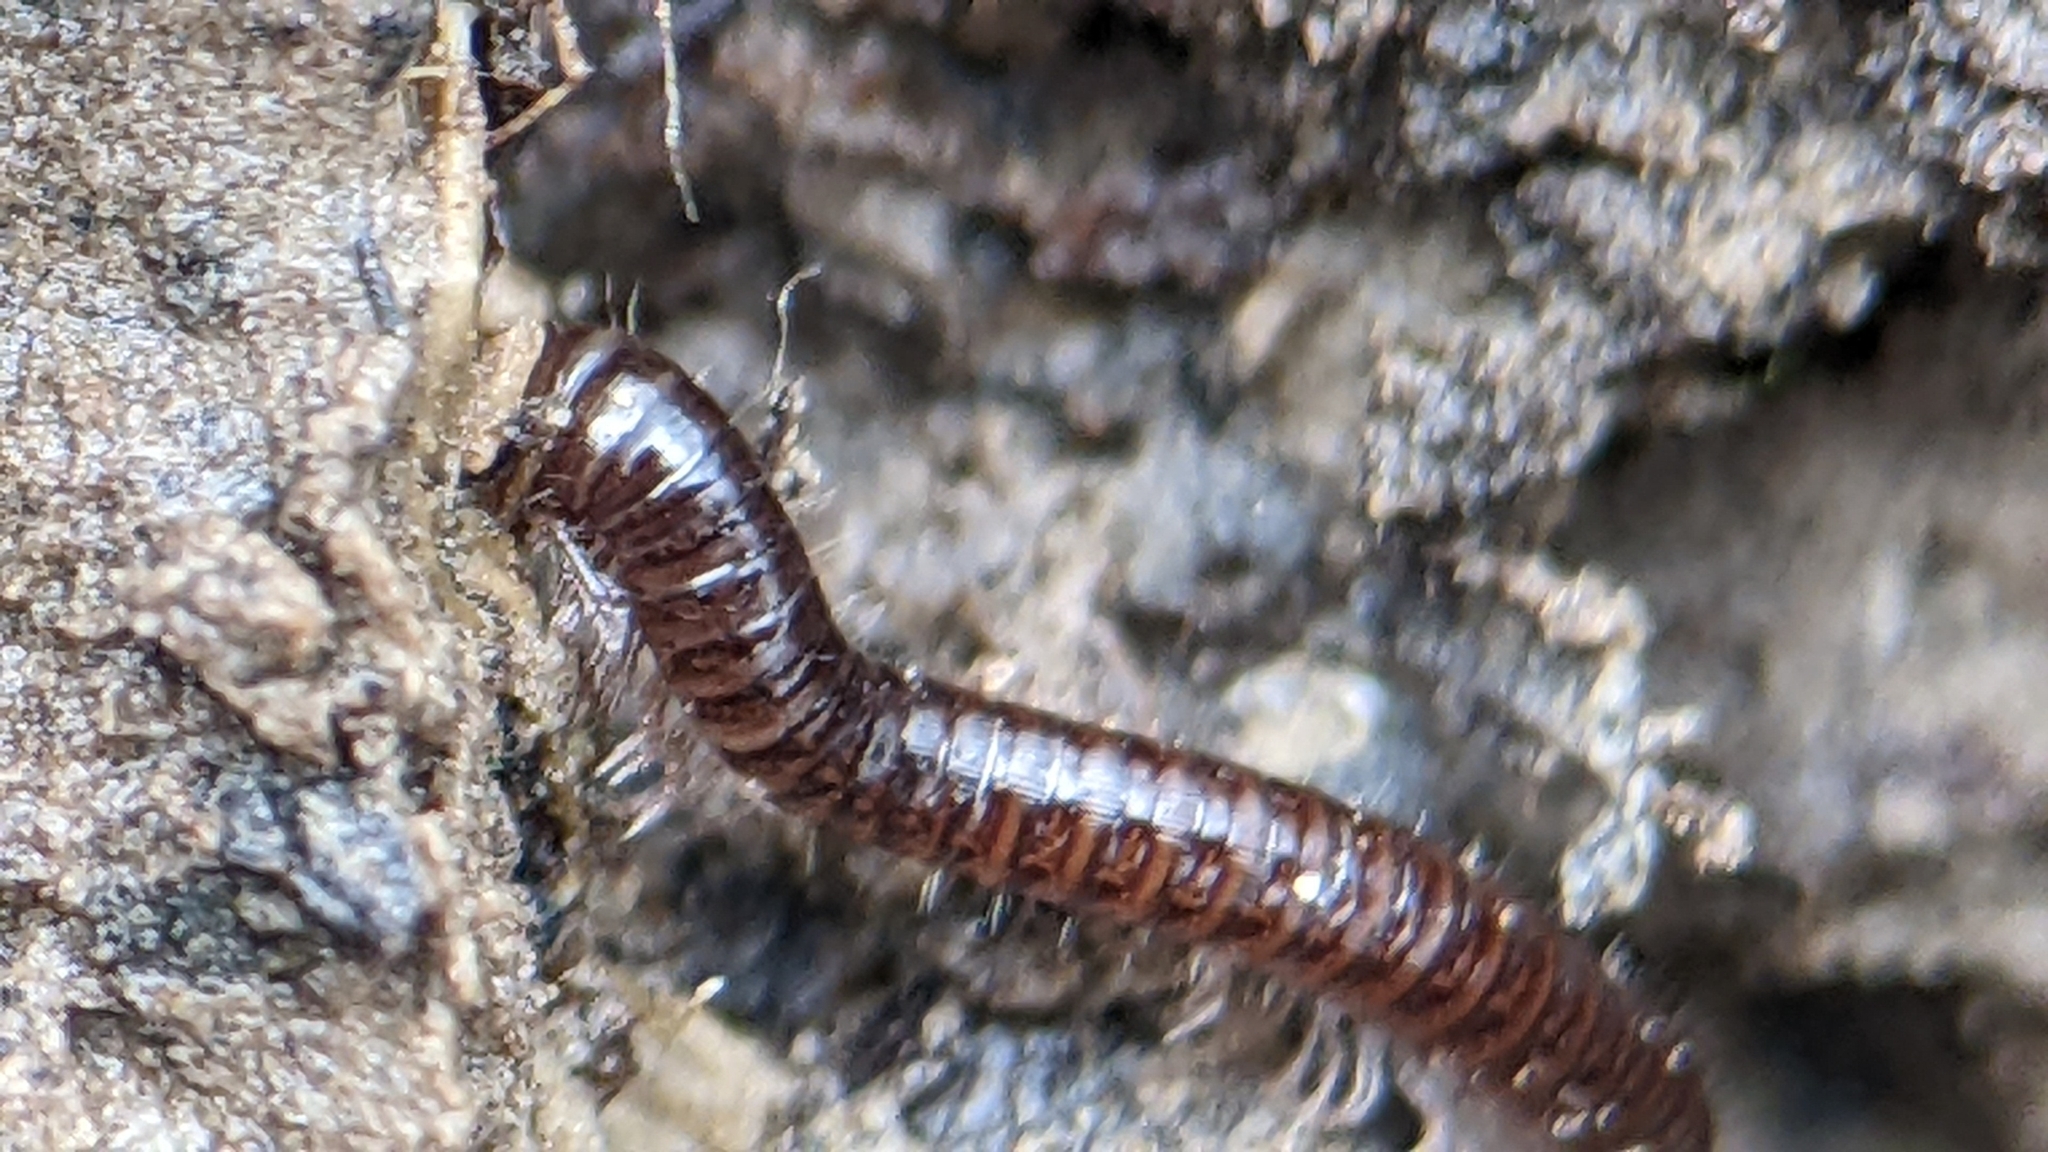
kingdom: Animalia
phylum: Arthropoda
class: Diplopoda
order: Julida
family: Julidae
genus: Ophyiulus
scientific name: Ophyiulus pilosus
